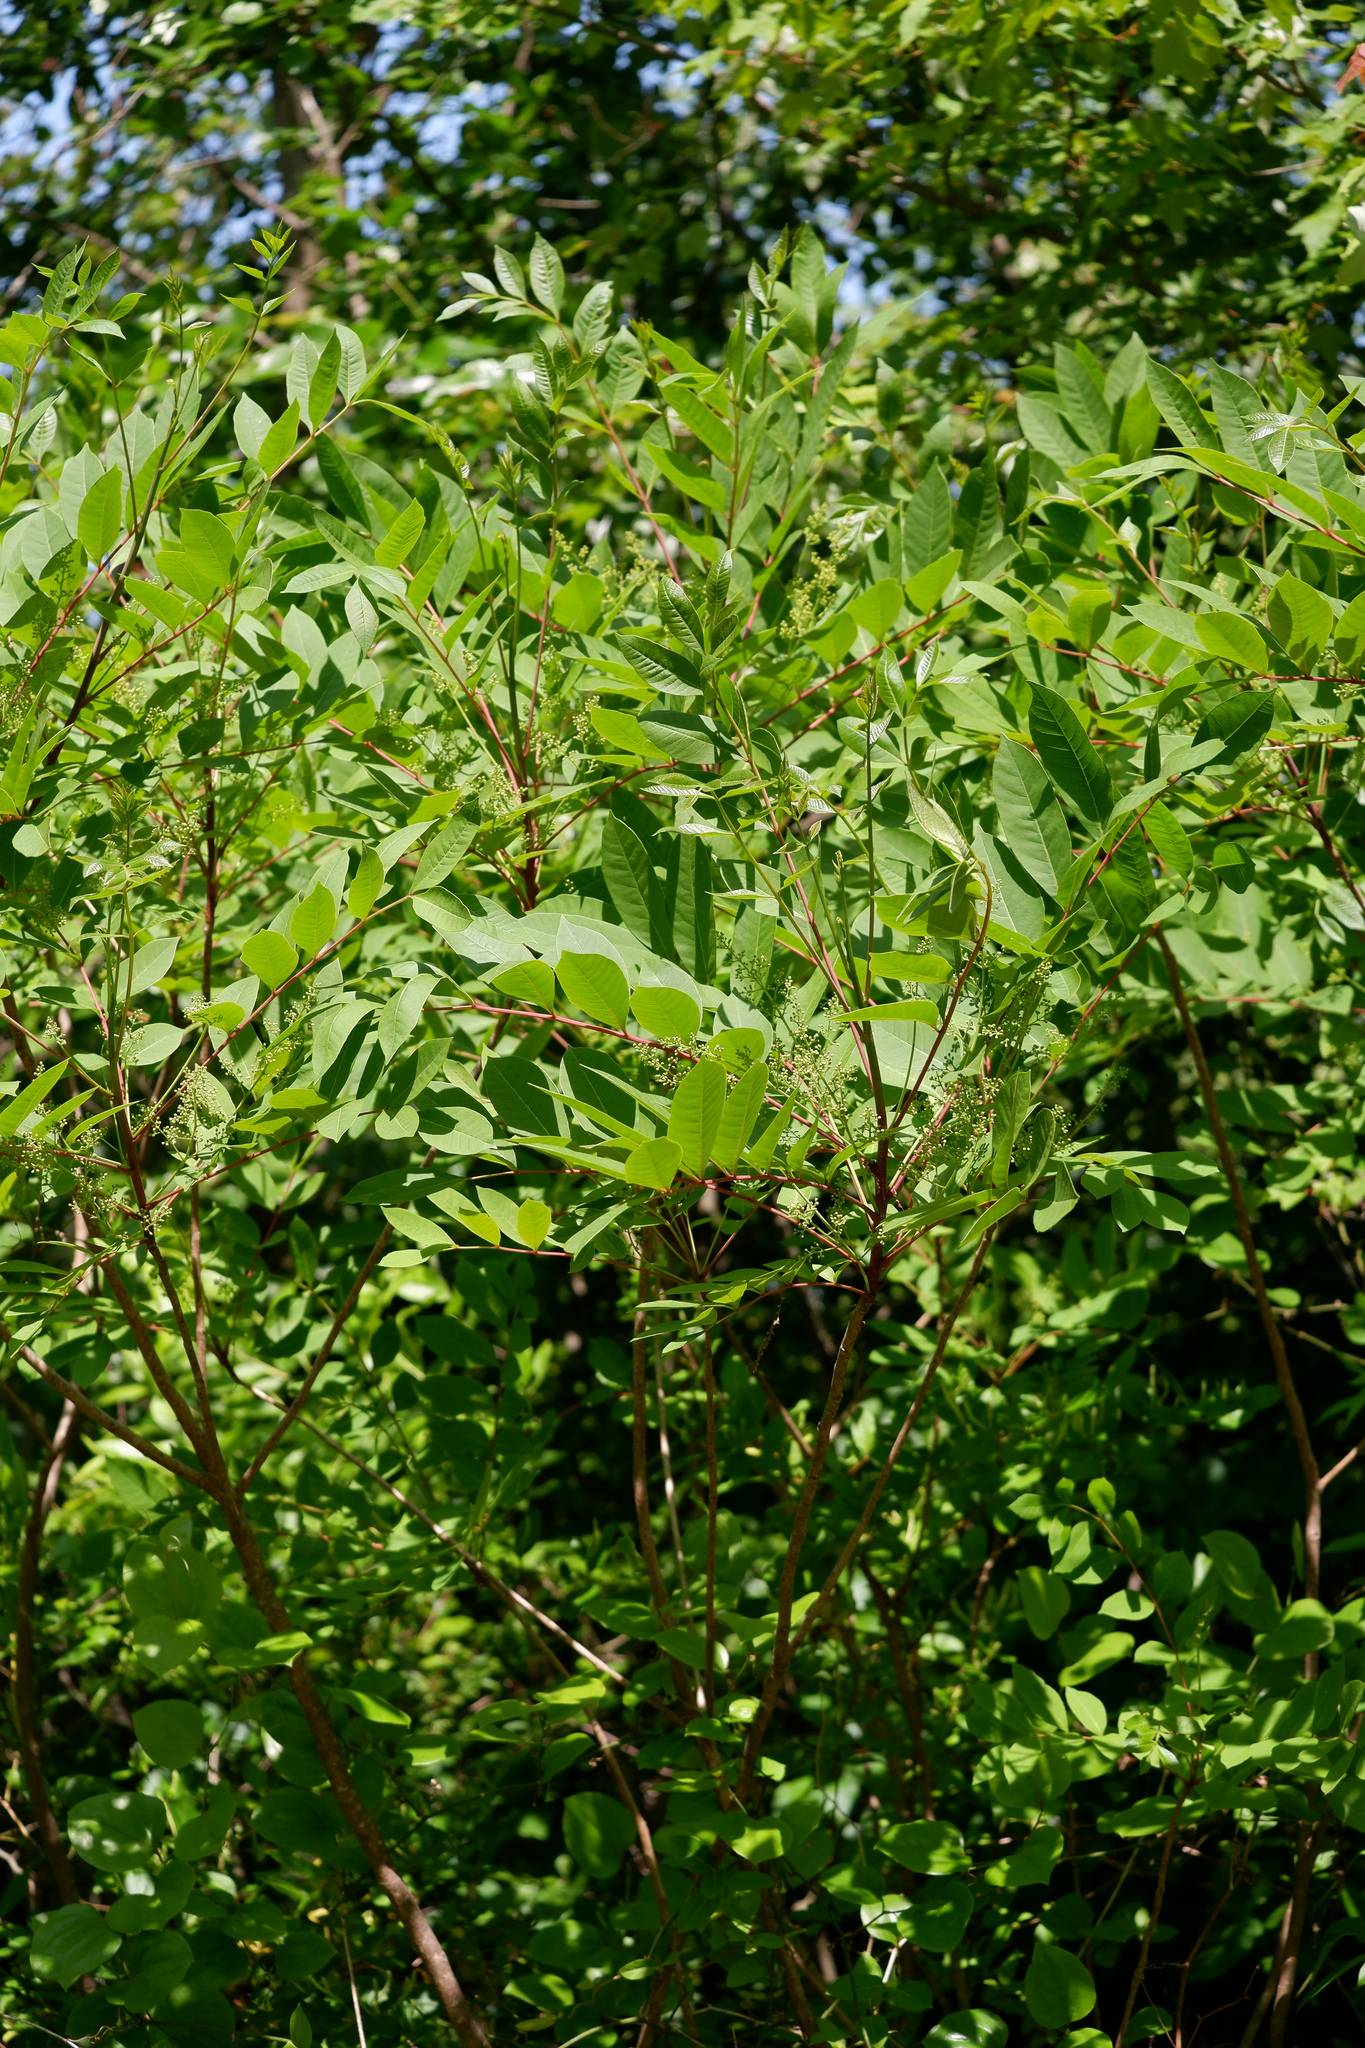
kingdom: Plantae
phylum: Tracheophyta
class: Magnoliopsida
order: Sapindales
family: Anacardiaceae
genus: Toxicodendron
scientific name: Toxicodendron vernix
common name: Poison sumac
